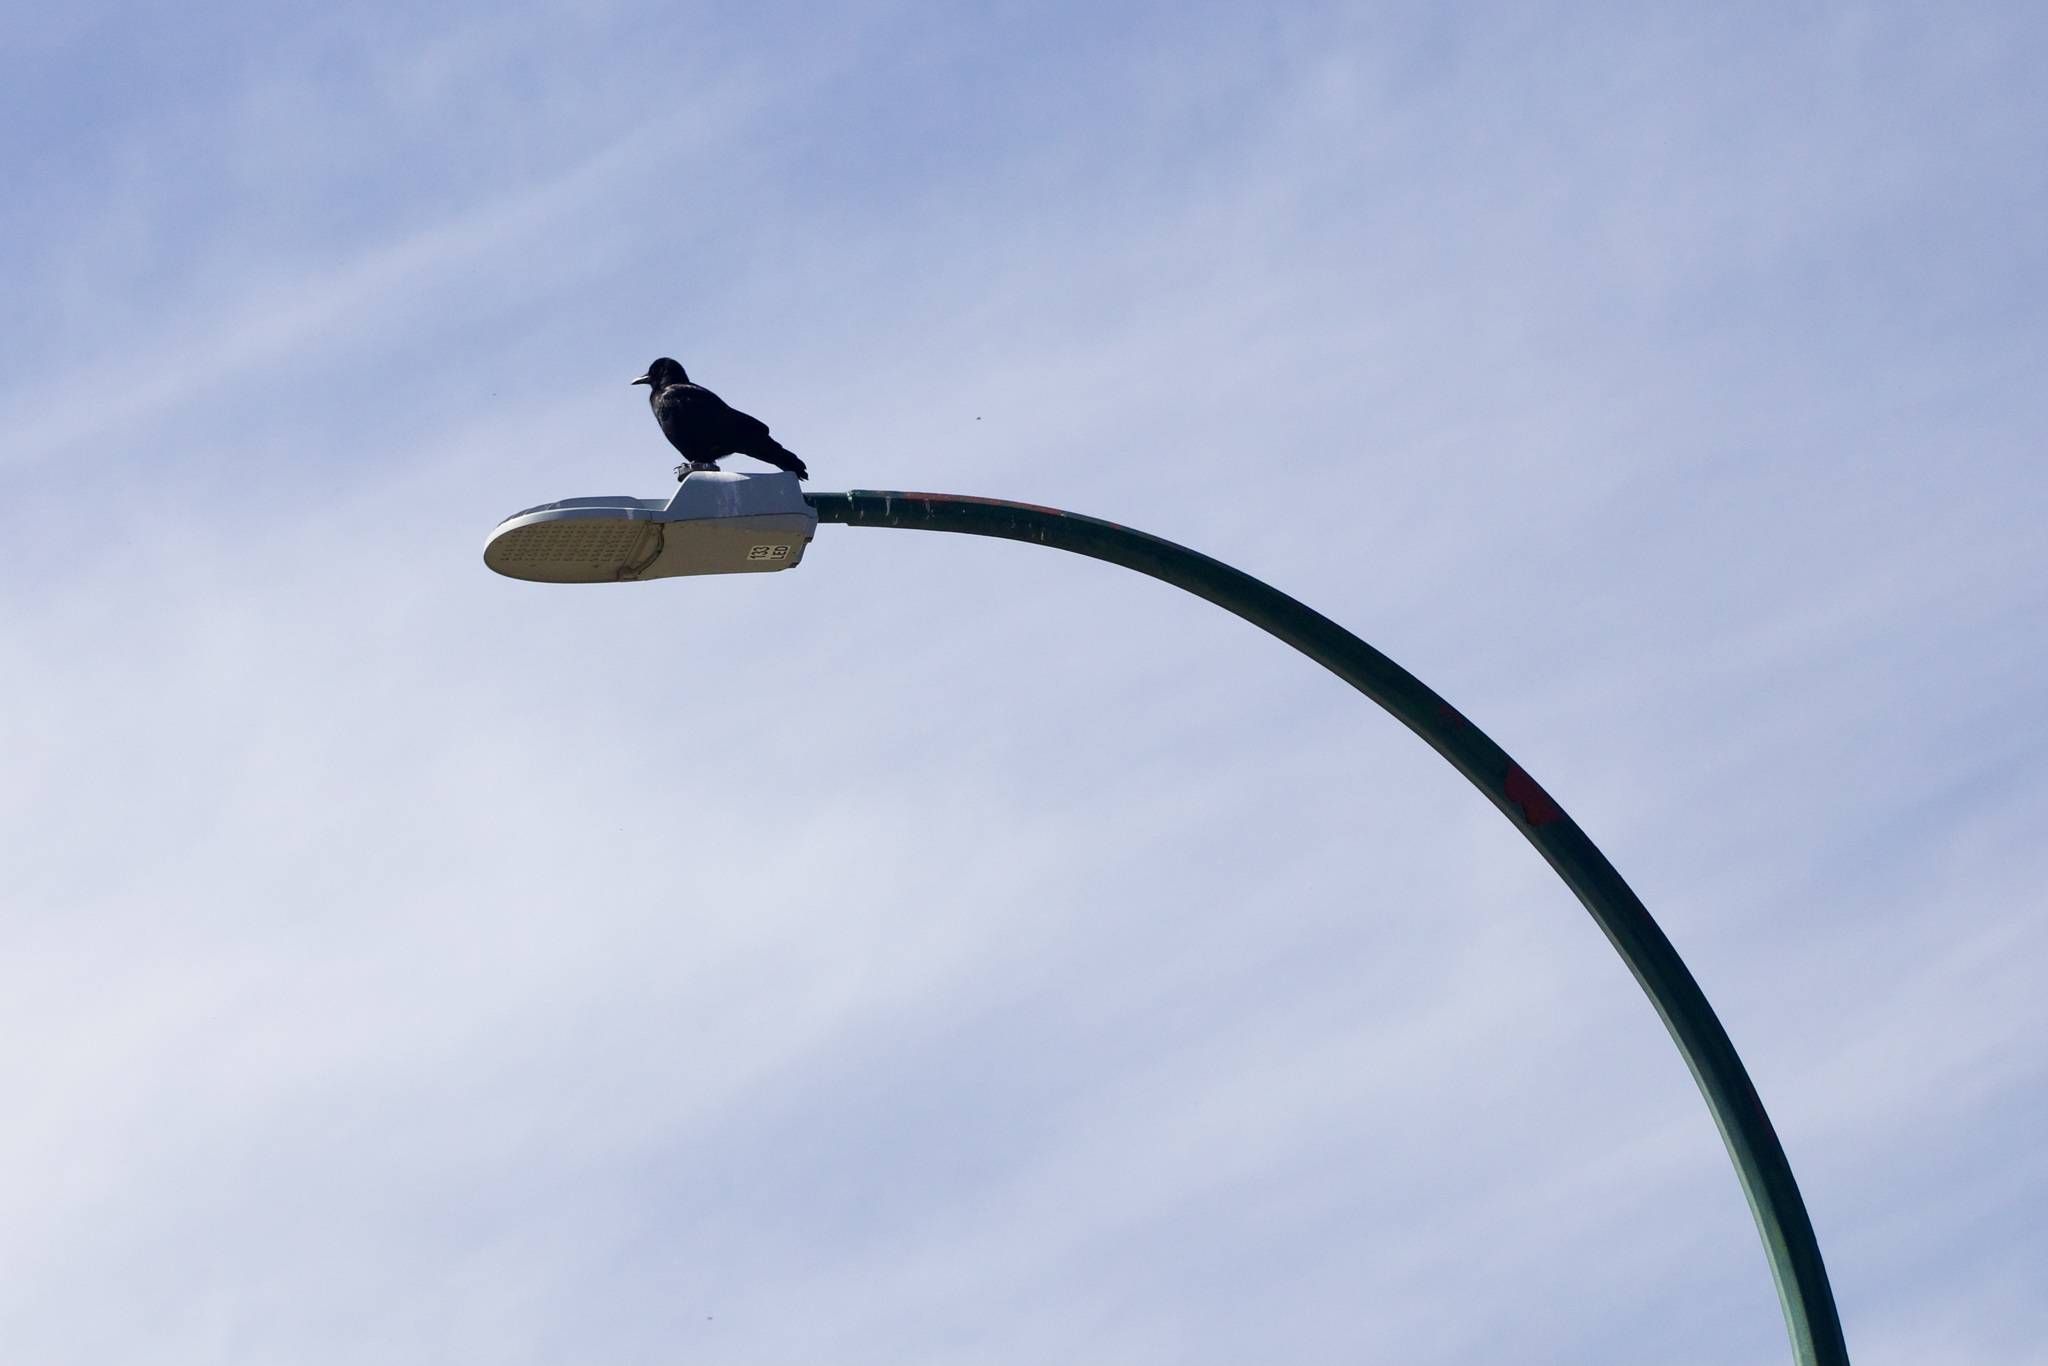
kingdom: Animalia
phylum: Chordata
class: Aves
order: Passeriformes
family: Corvidae
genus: Corvus
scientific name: Corvus brachyrhynchos
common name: American crow
